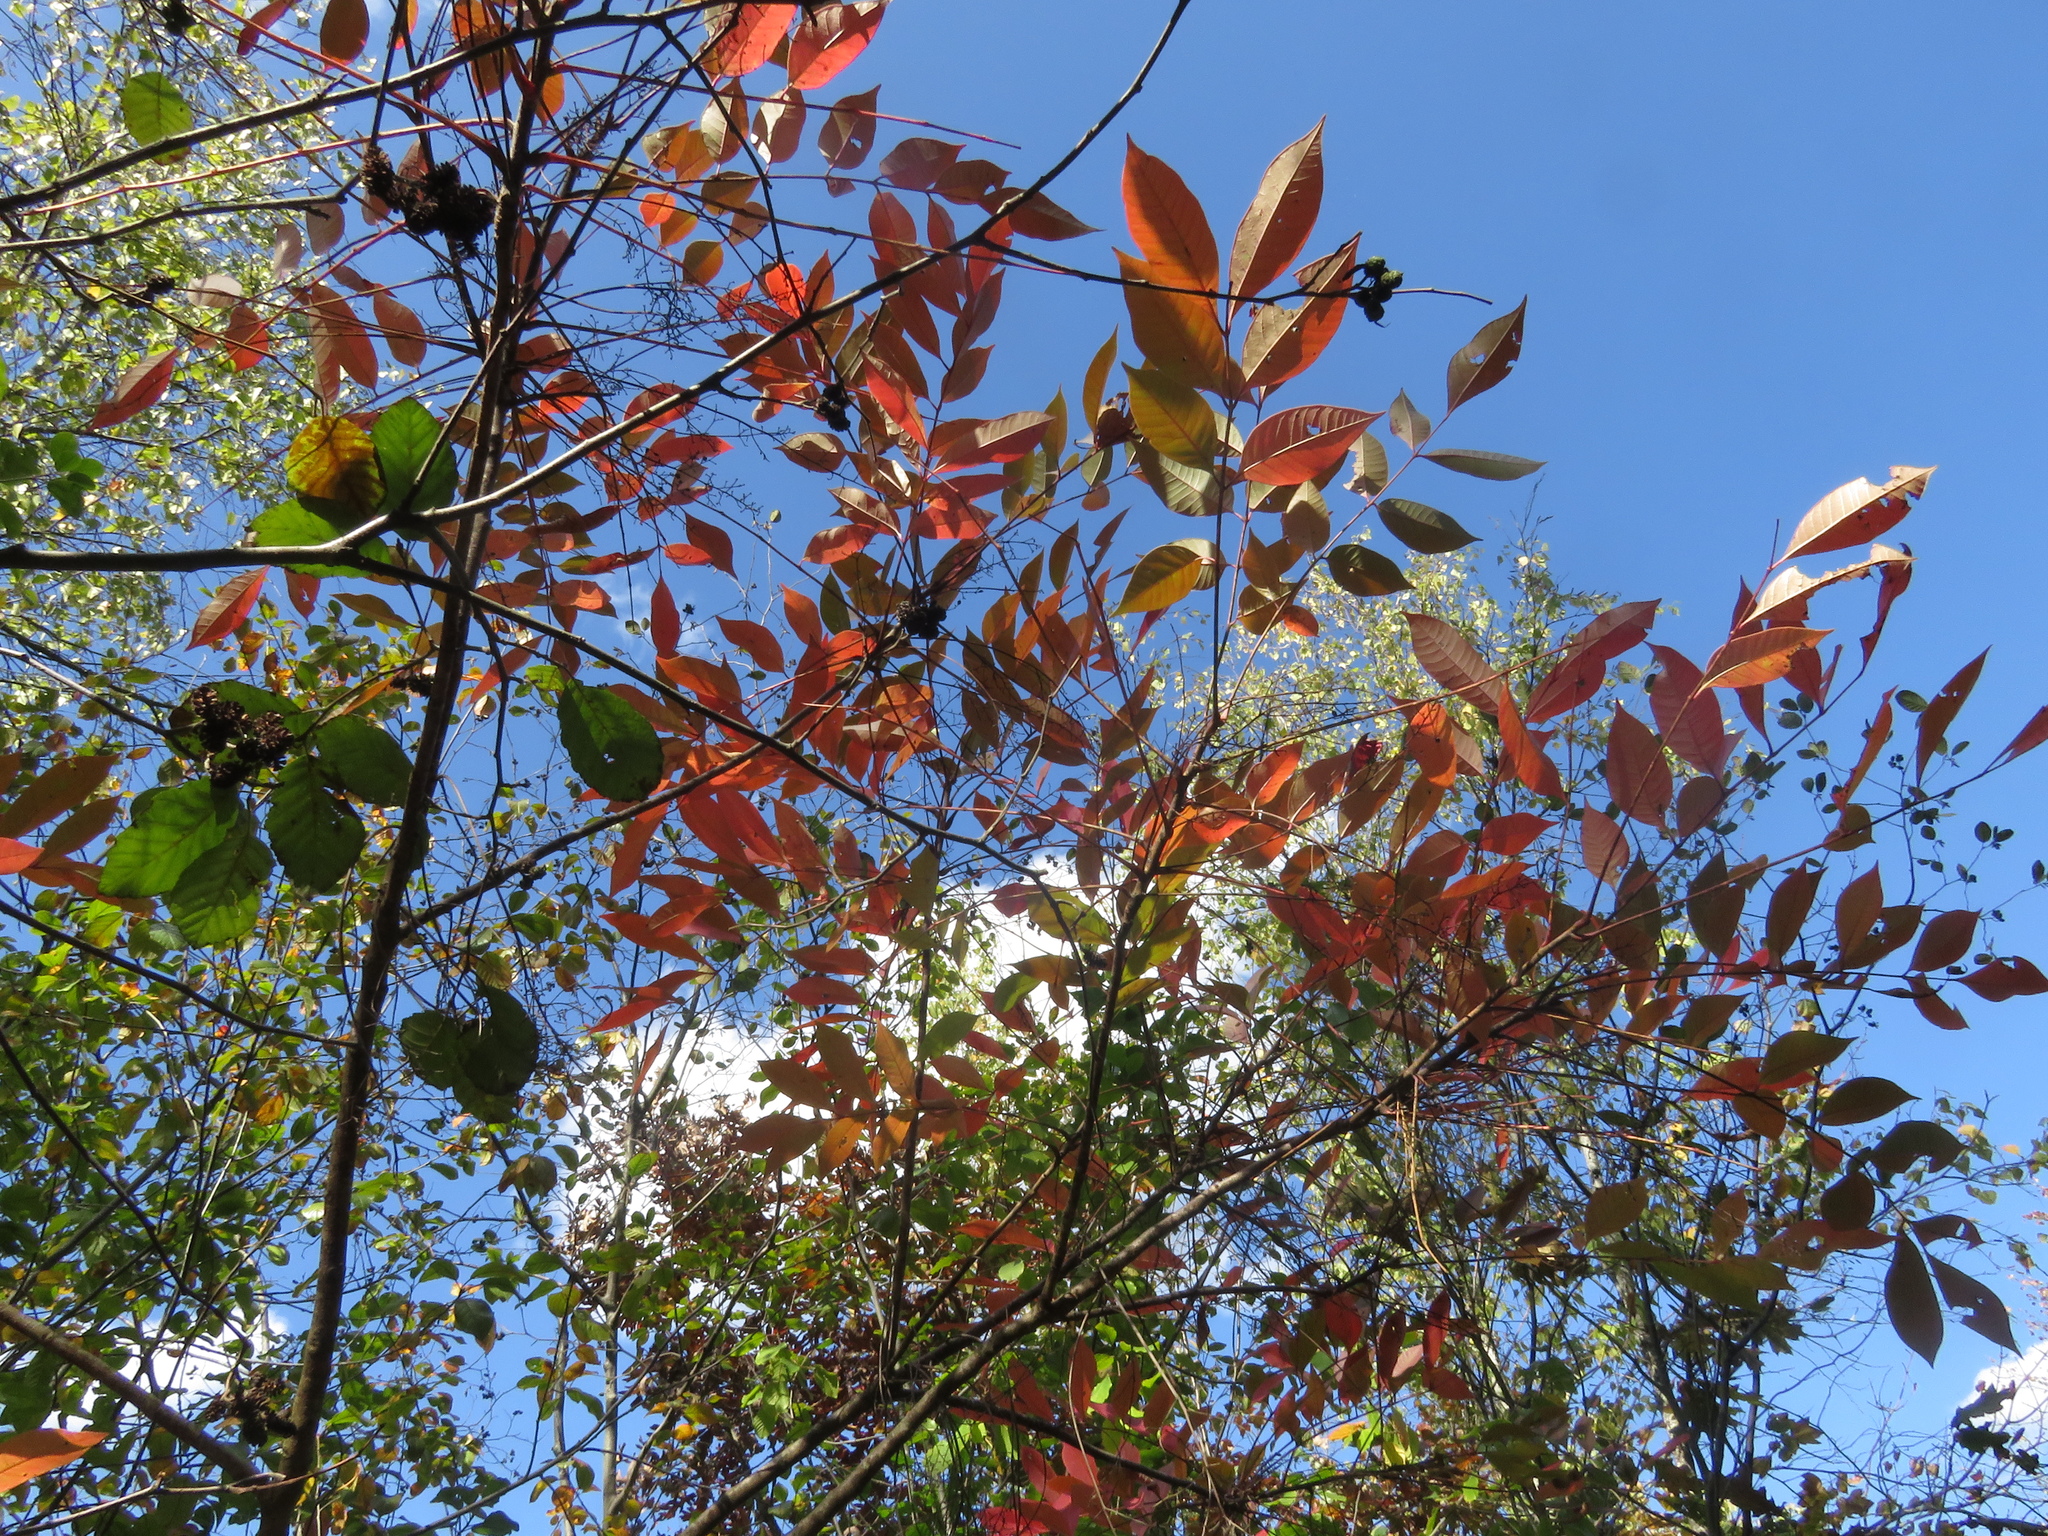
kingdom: Plantae
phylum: Tracheophyta
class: Magnoliopsida
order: Sapindales
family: Anacardiaceae
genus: Toxicodendron
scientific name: Toxicodendron vernix
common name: Poison sumac
